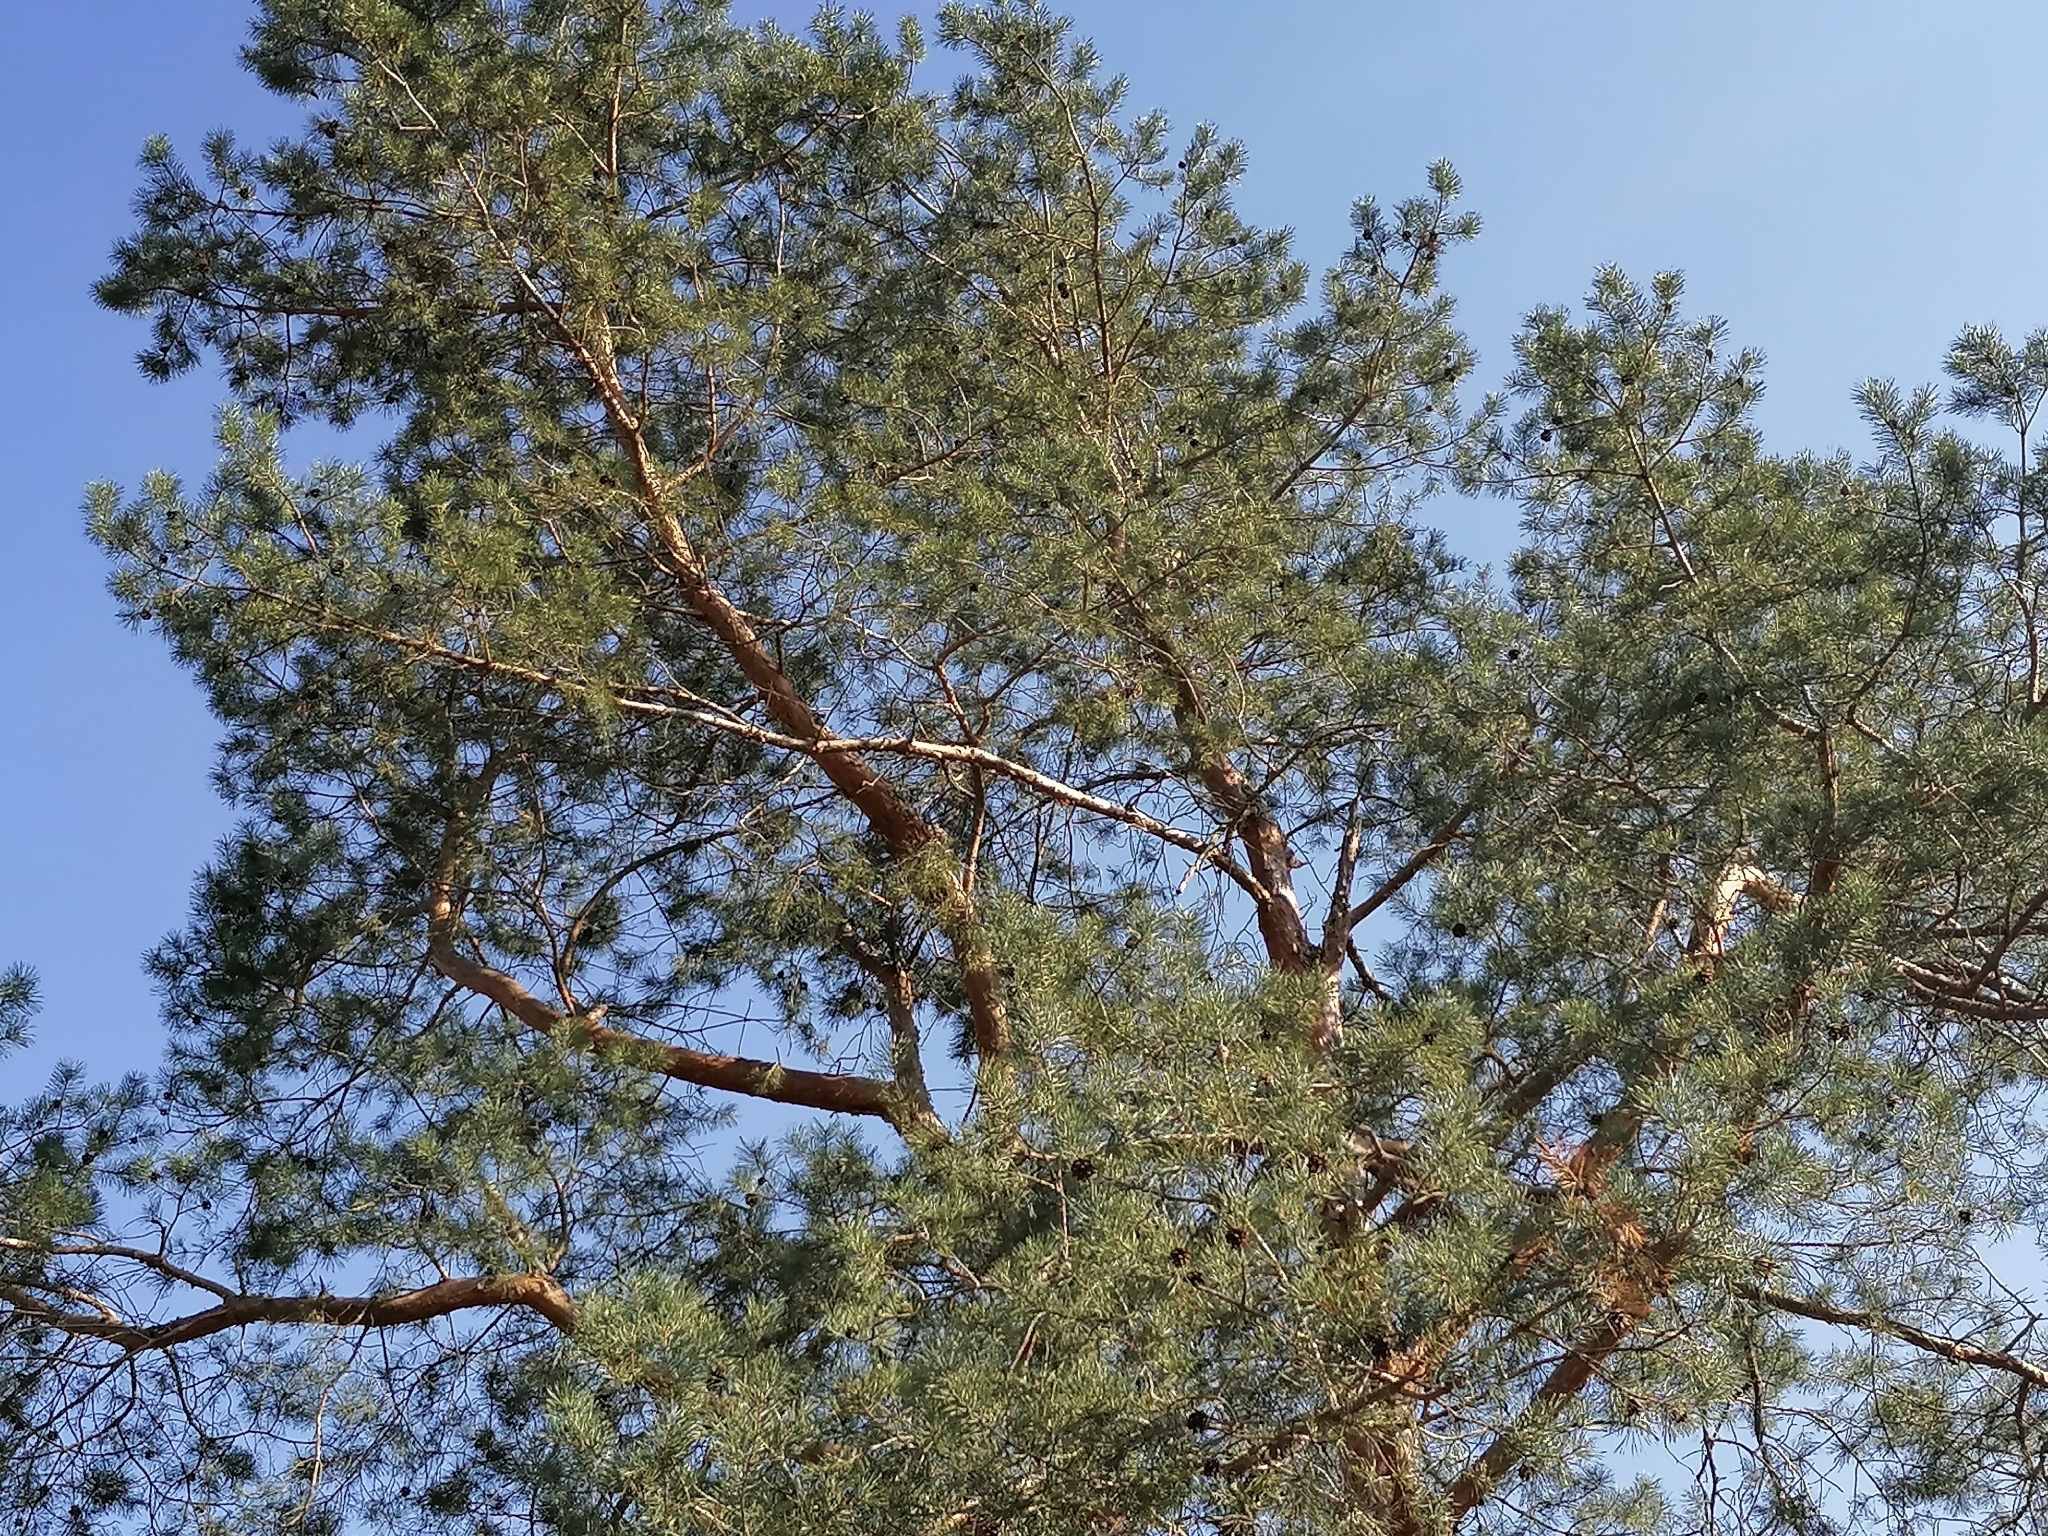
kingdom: Plantae
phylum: Tracheophyta
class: Pinopsida
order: Pinales
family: Pinaceae
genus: Pinus
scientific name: Pinus sylvestris
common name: Scots pine
